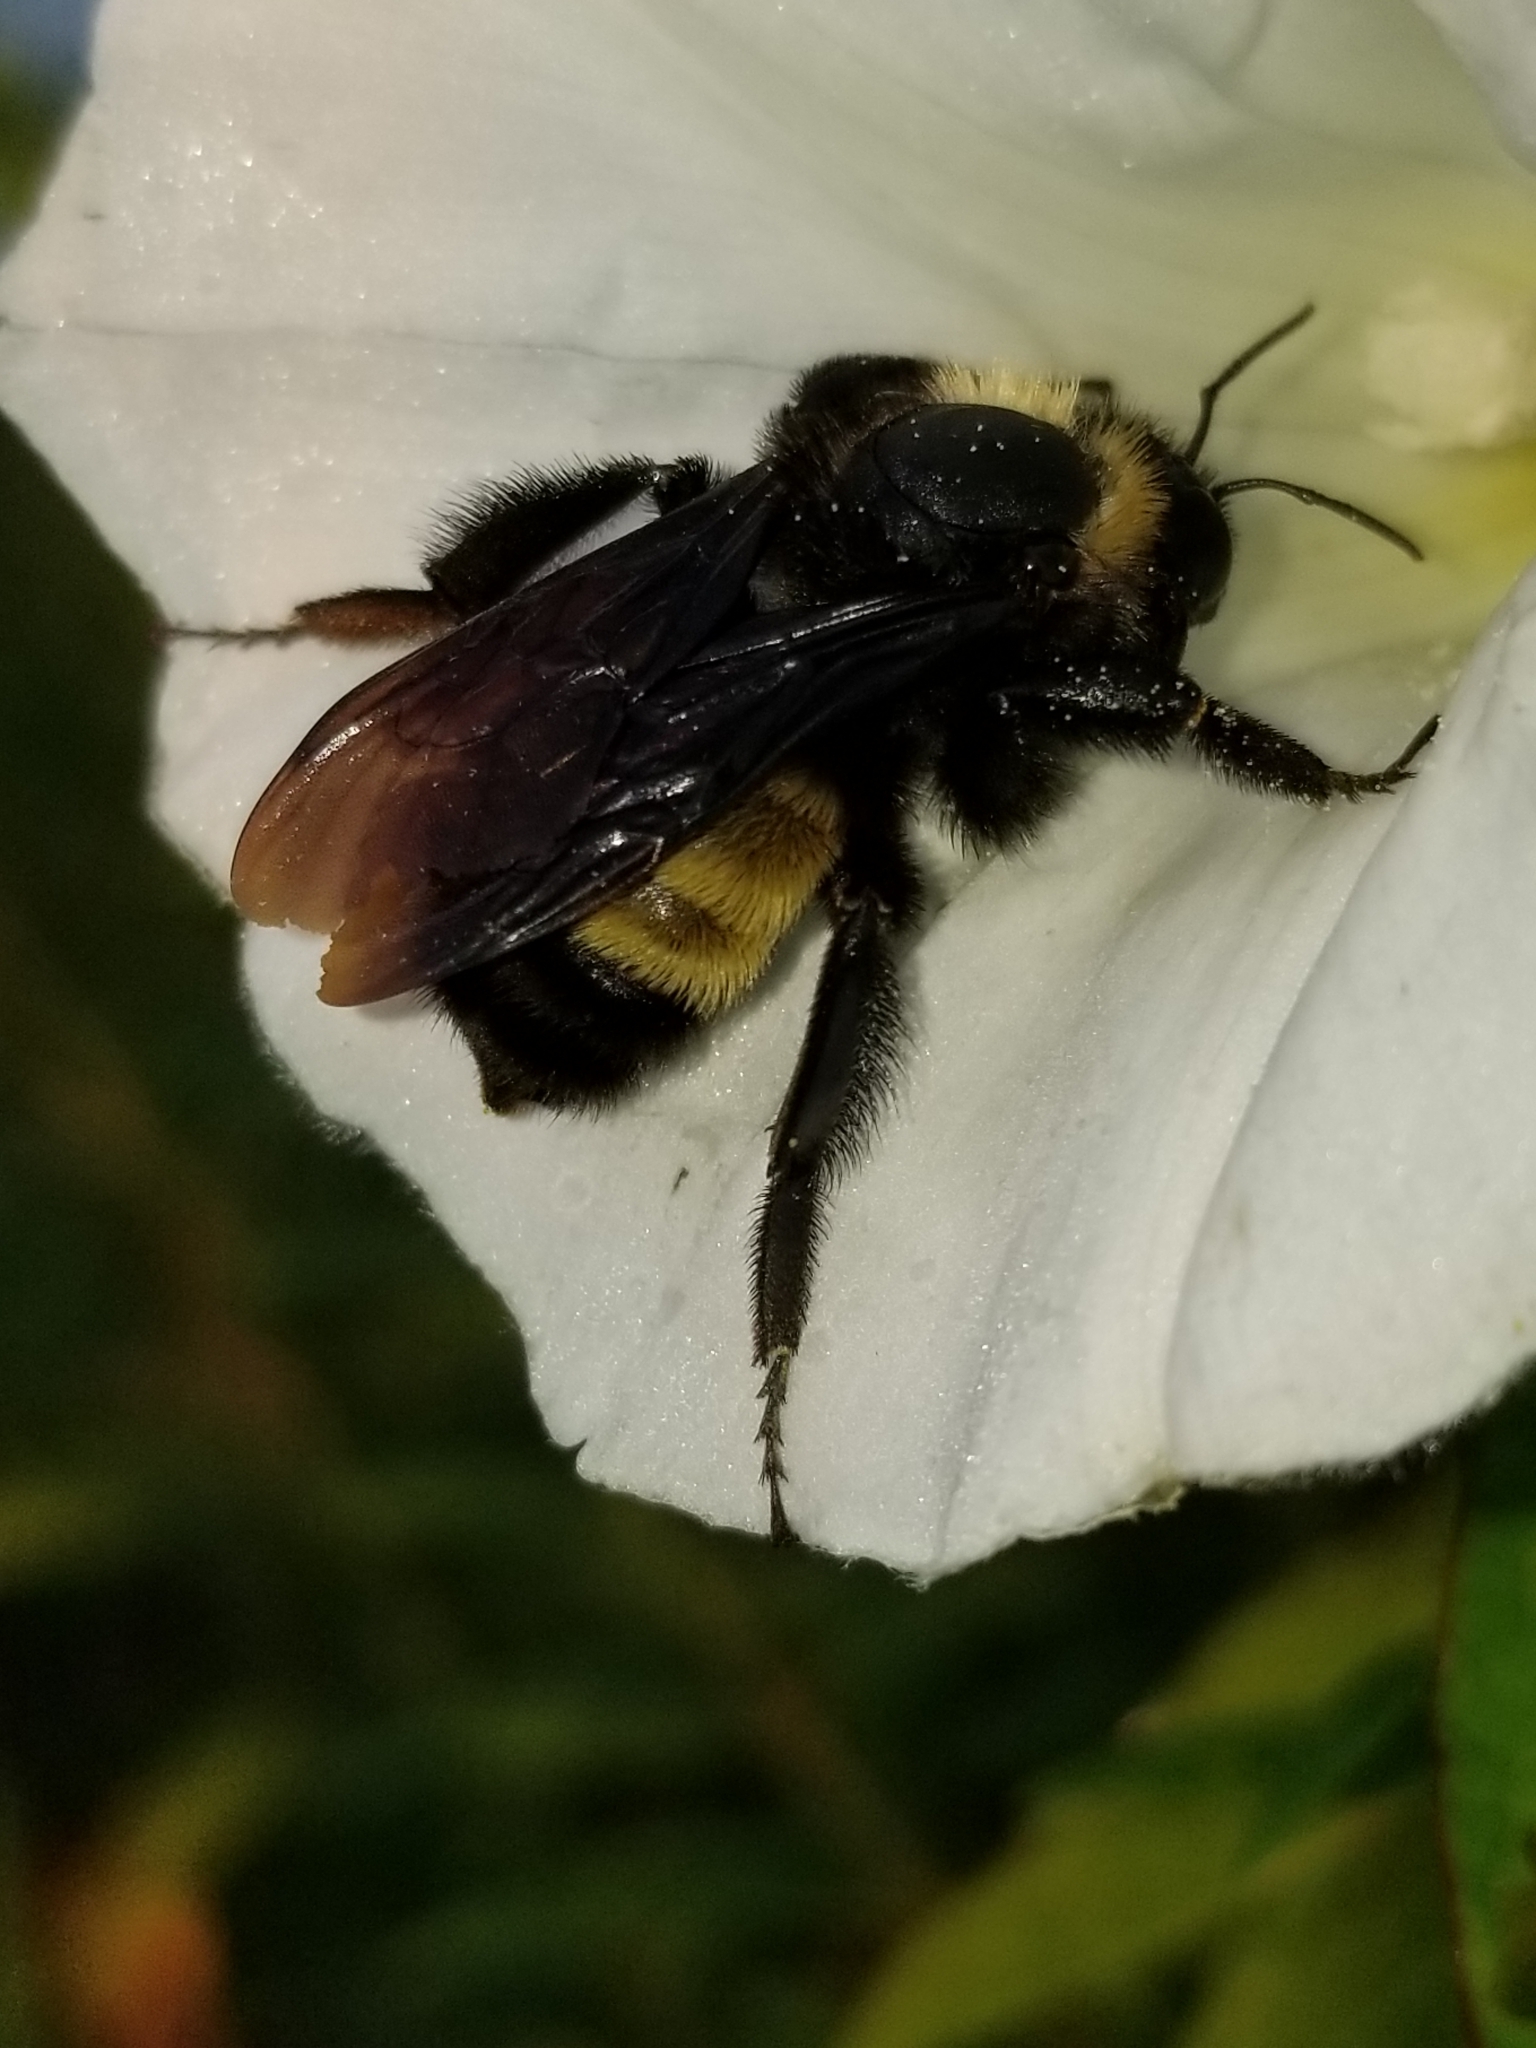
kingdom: Animalia
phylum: Arthropoda
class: Insecta
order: Hymenoptera
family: Apidae
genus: Bombus
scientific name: Bombus pensylvanicus
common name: Bumble bee
